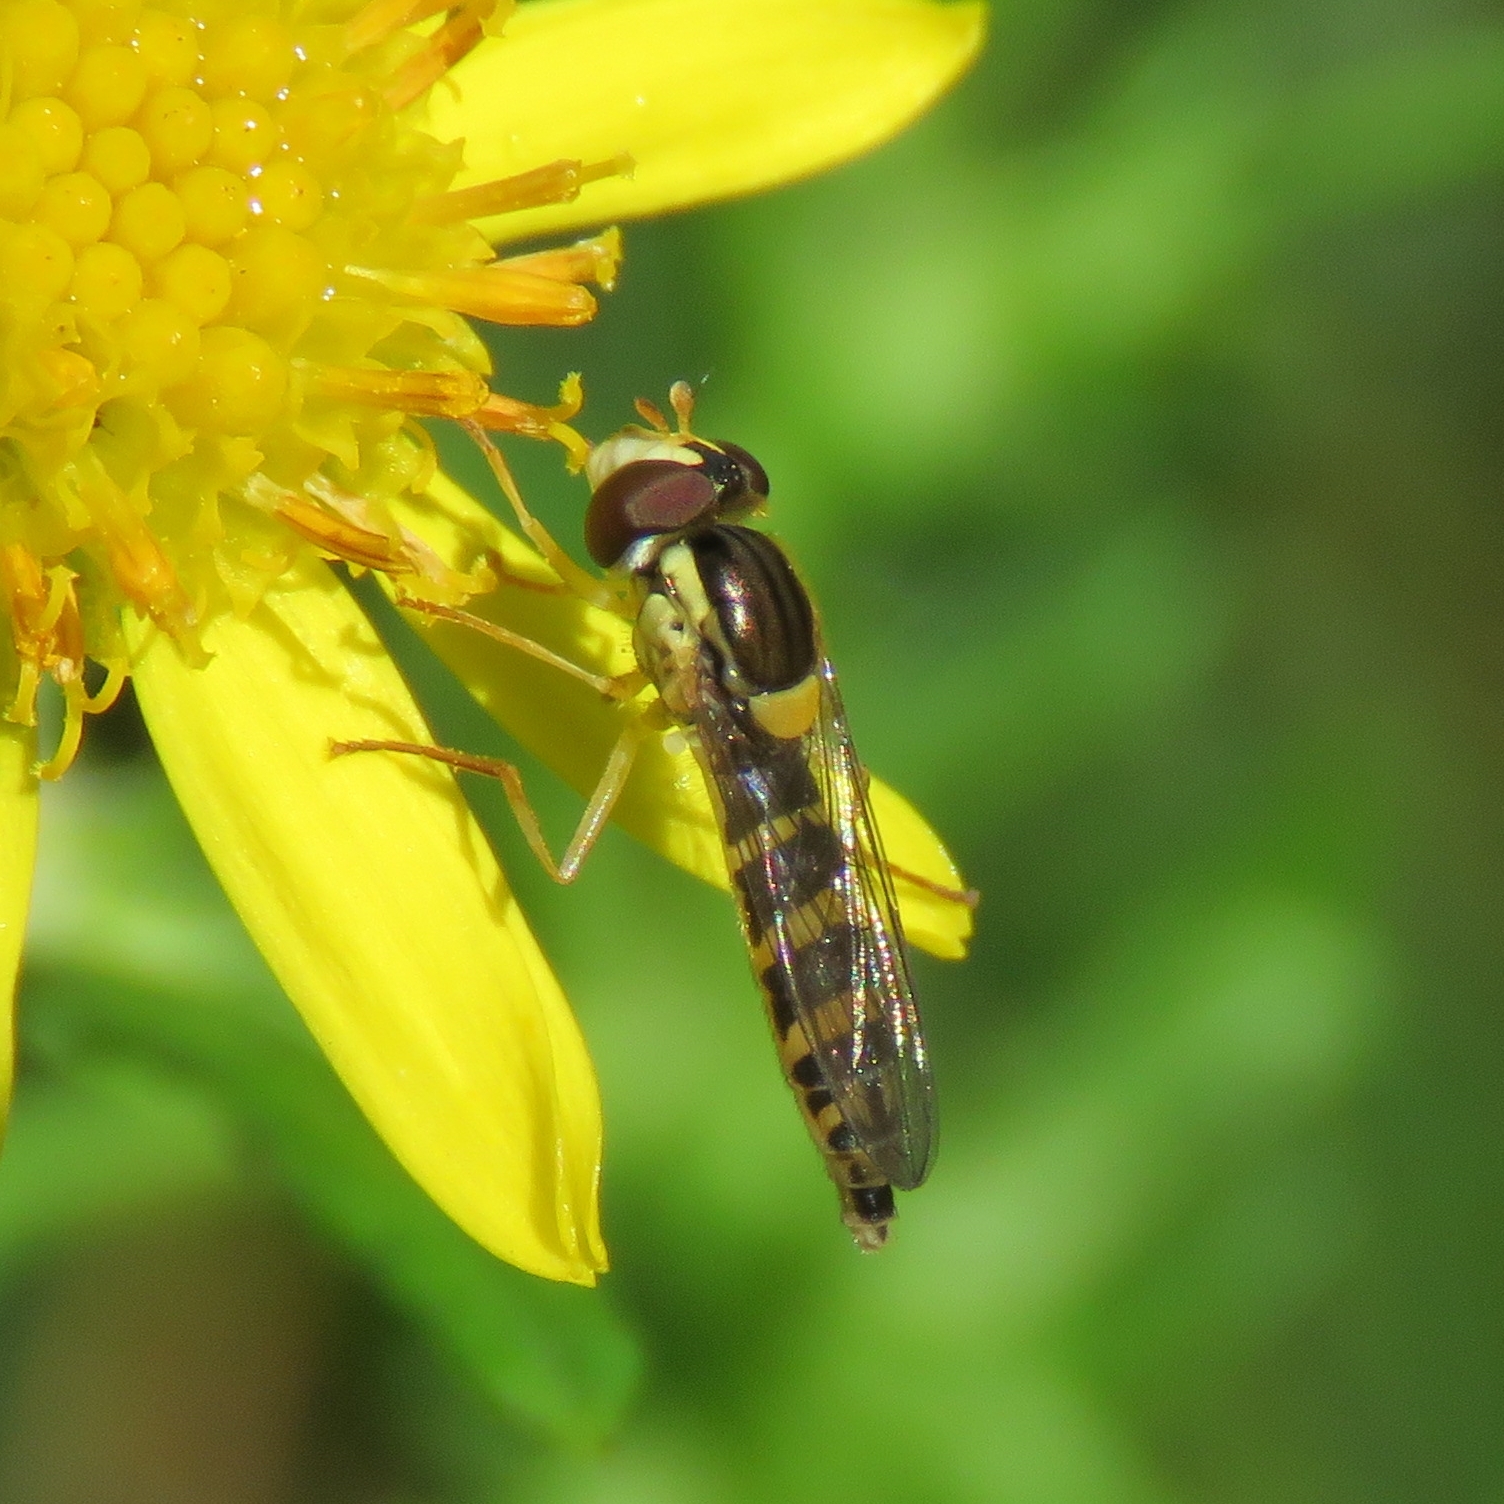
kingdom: Animalia
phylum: Arthropoda
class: Insecta
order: Diptera
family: Syrphidae
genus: Sphaerophoria
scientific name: Sphaerophoria
